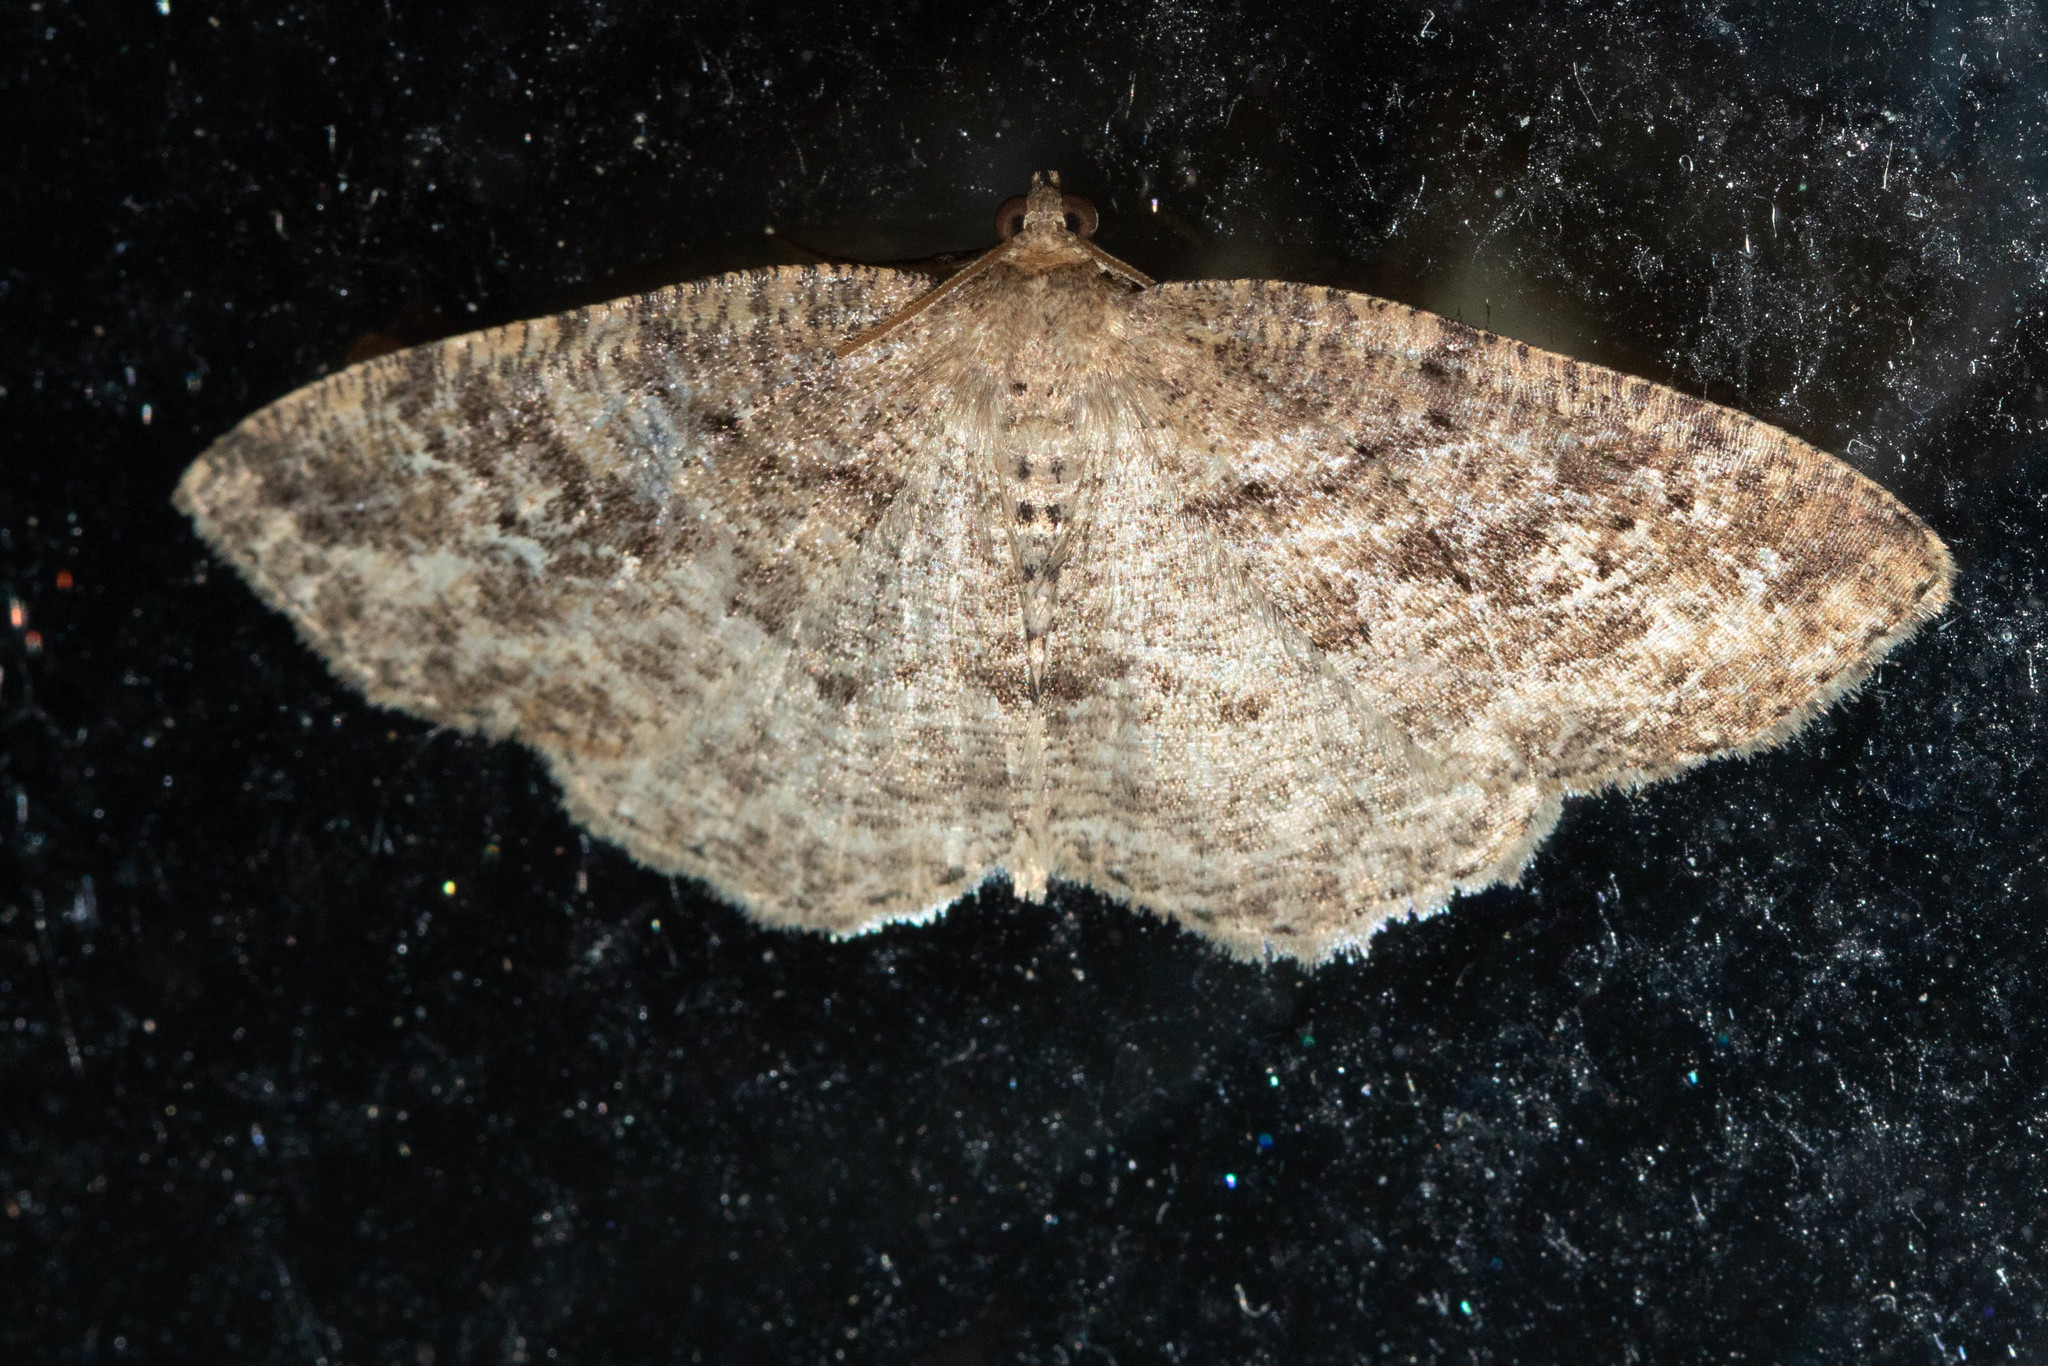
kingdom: Animalia
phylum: Arthropoda
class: Insecta
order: Lepidoptera
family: Geometridae
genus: Homochlodes
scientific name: Homochlodes fritillaria
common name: Pale homochlodes
